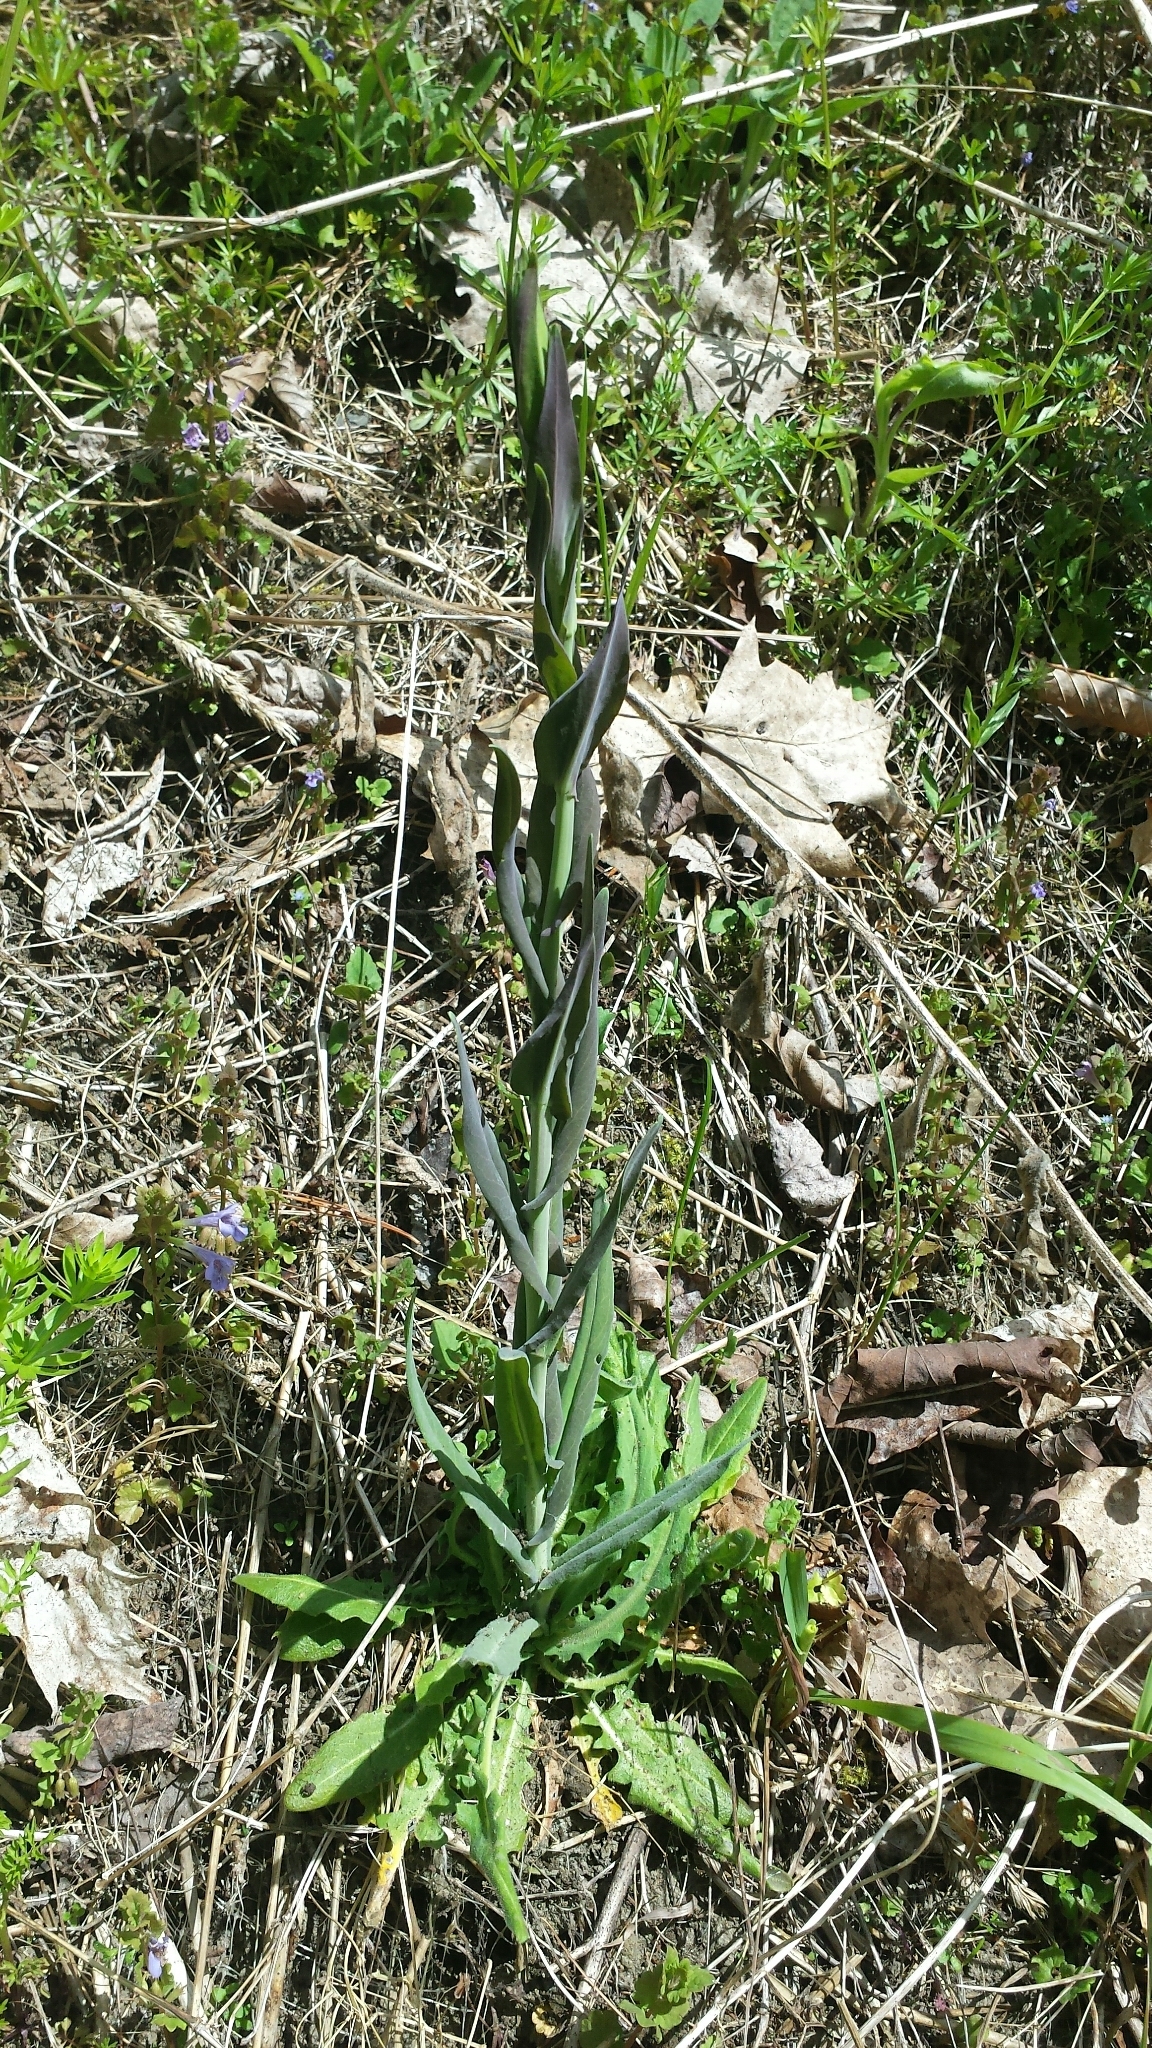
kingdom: Plantae
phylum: Tracheophyta
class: Magnoliopsida
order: Brassicales
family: Brassicaceae
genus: Turritis
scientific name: Turritis glabra
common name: Tower rockcress
